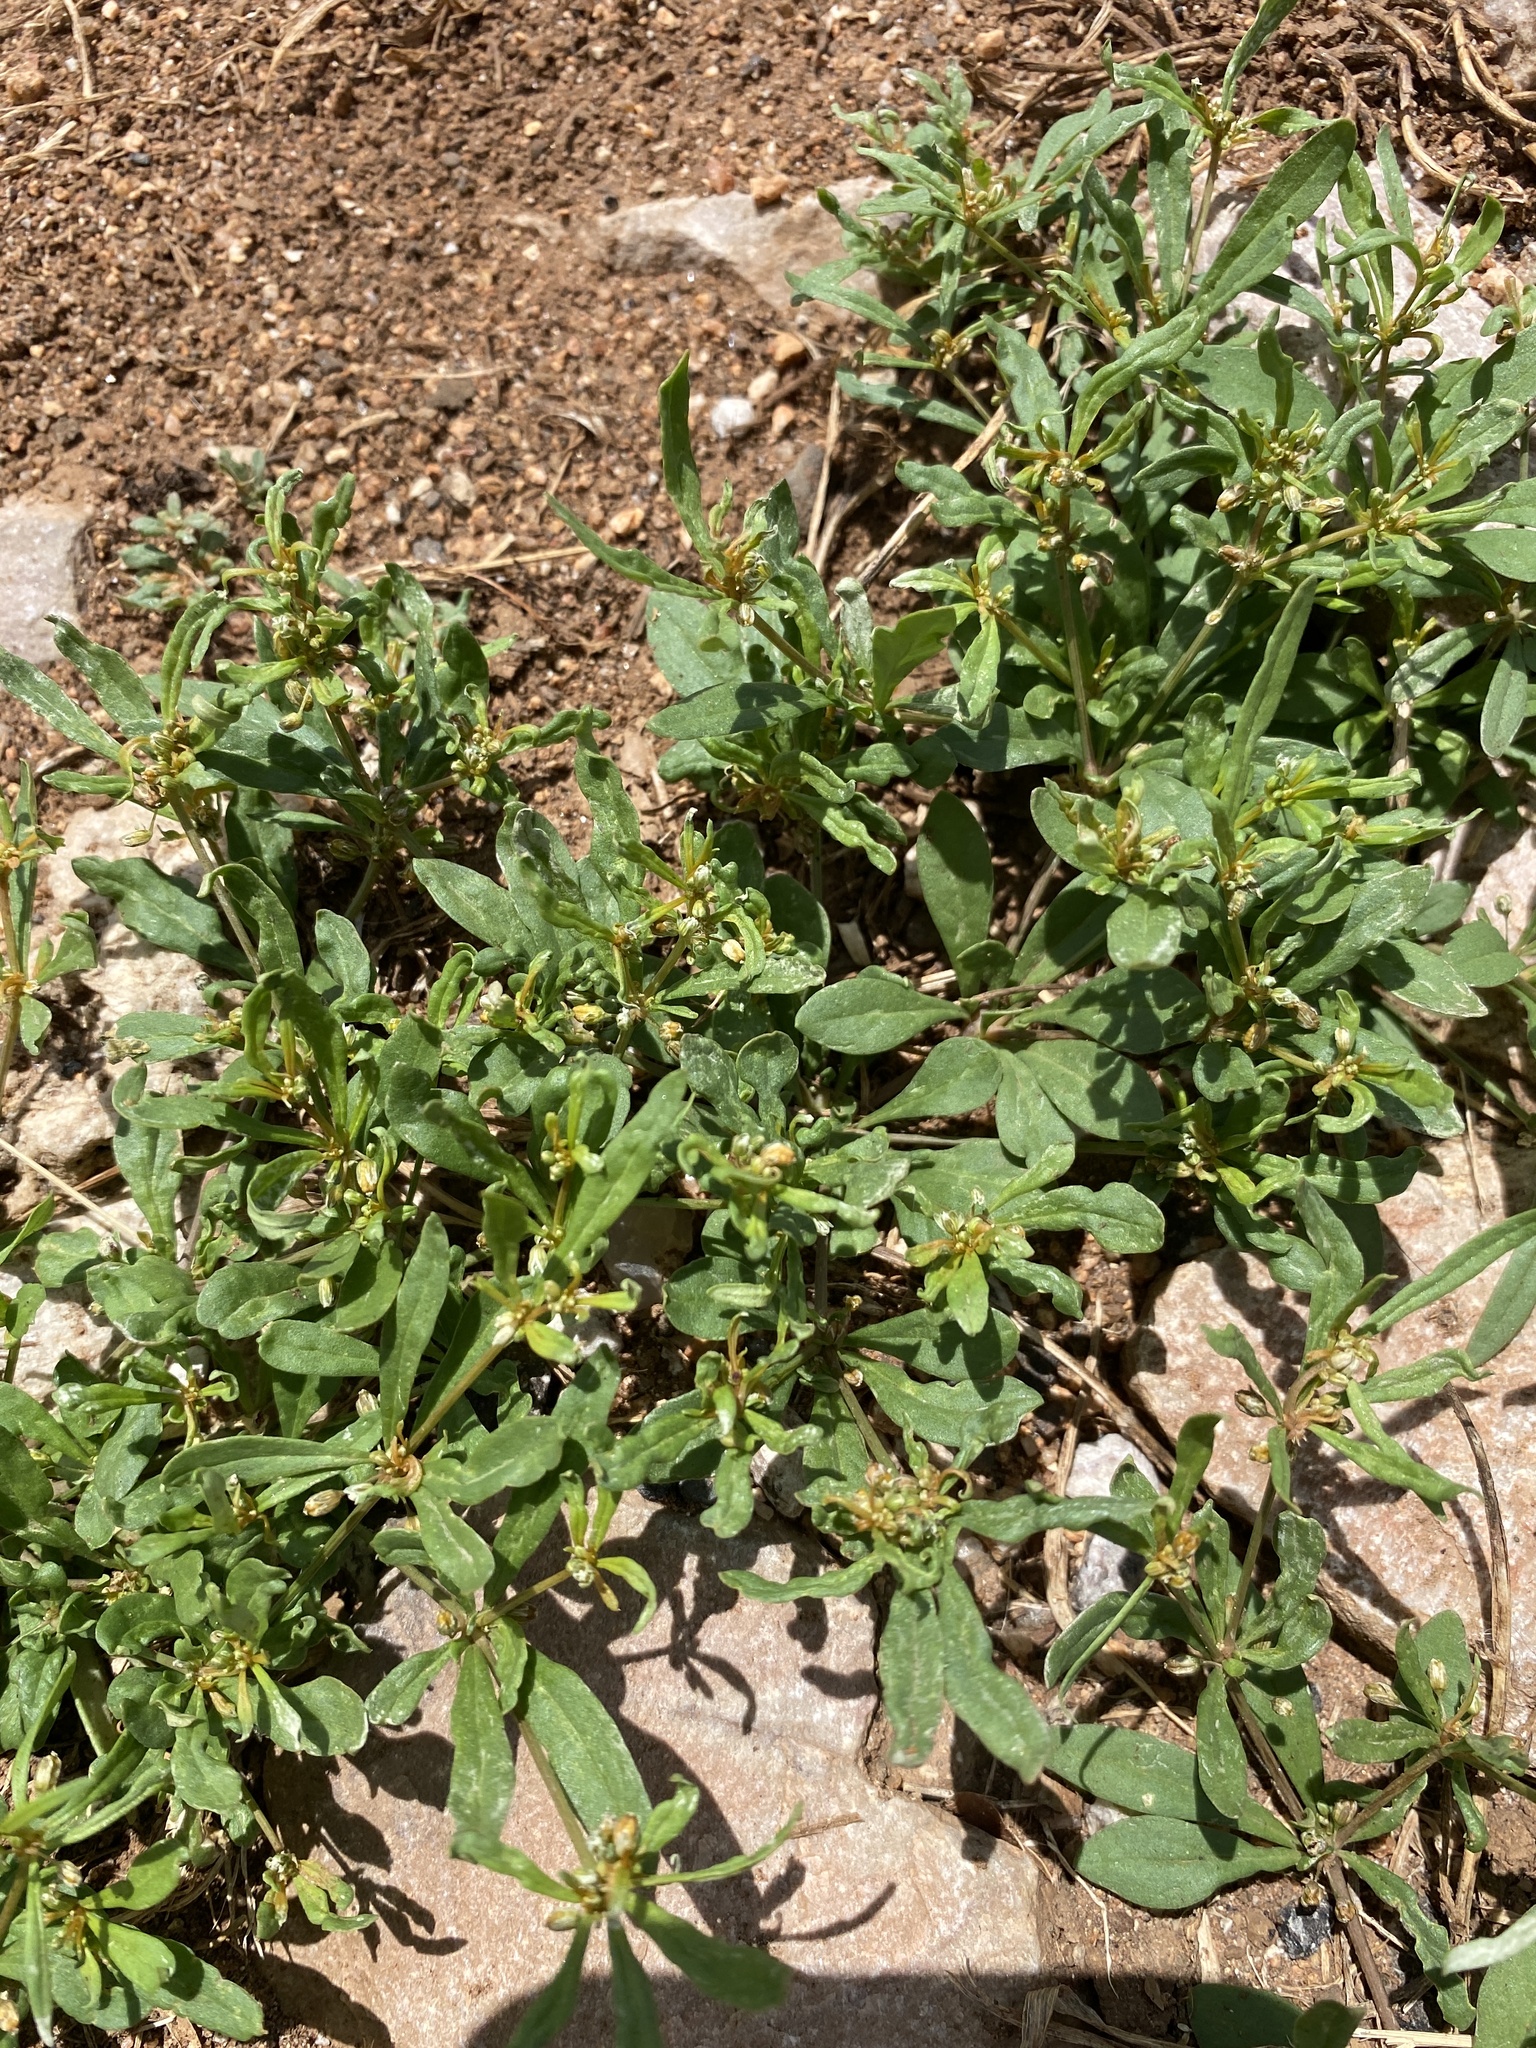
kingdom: Plantae
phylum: Tracheophyta
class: Magnoliopsida
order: Caryophyllales
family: Molluginaceae
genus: Mollugo
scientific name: Mollugo verticillata
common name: Green carpetweed
